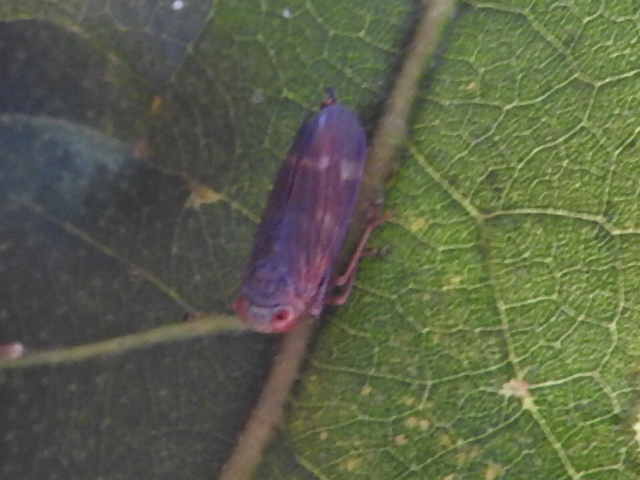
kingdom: Animalia
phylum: Arthropoda
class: Insecta
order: Hemiptera
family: Cicadellidae
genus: Jikradia
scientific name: Jikradia olitoria
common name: Coppery leafhopper
